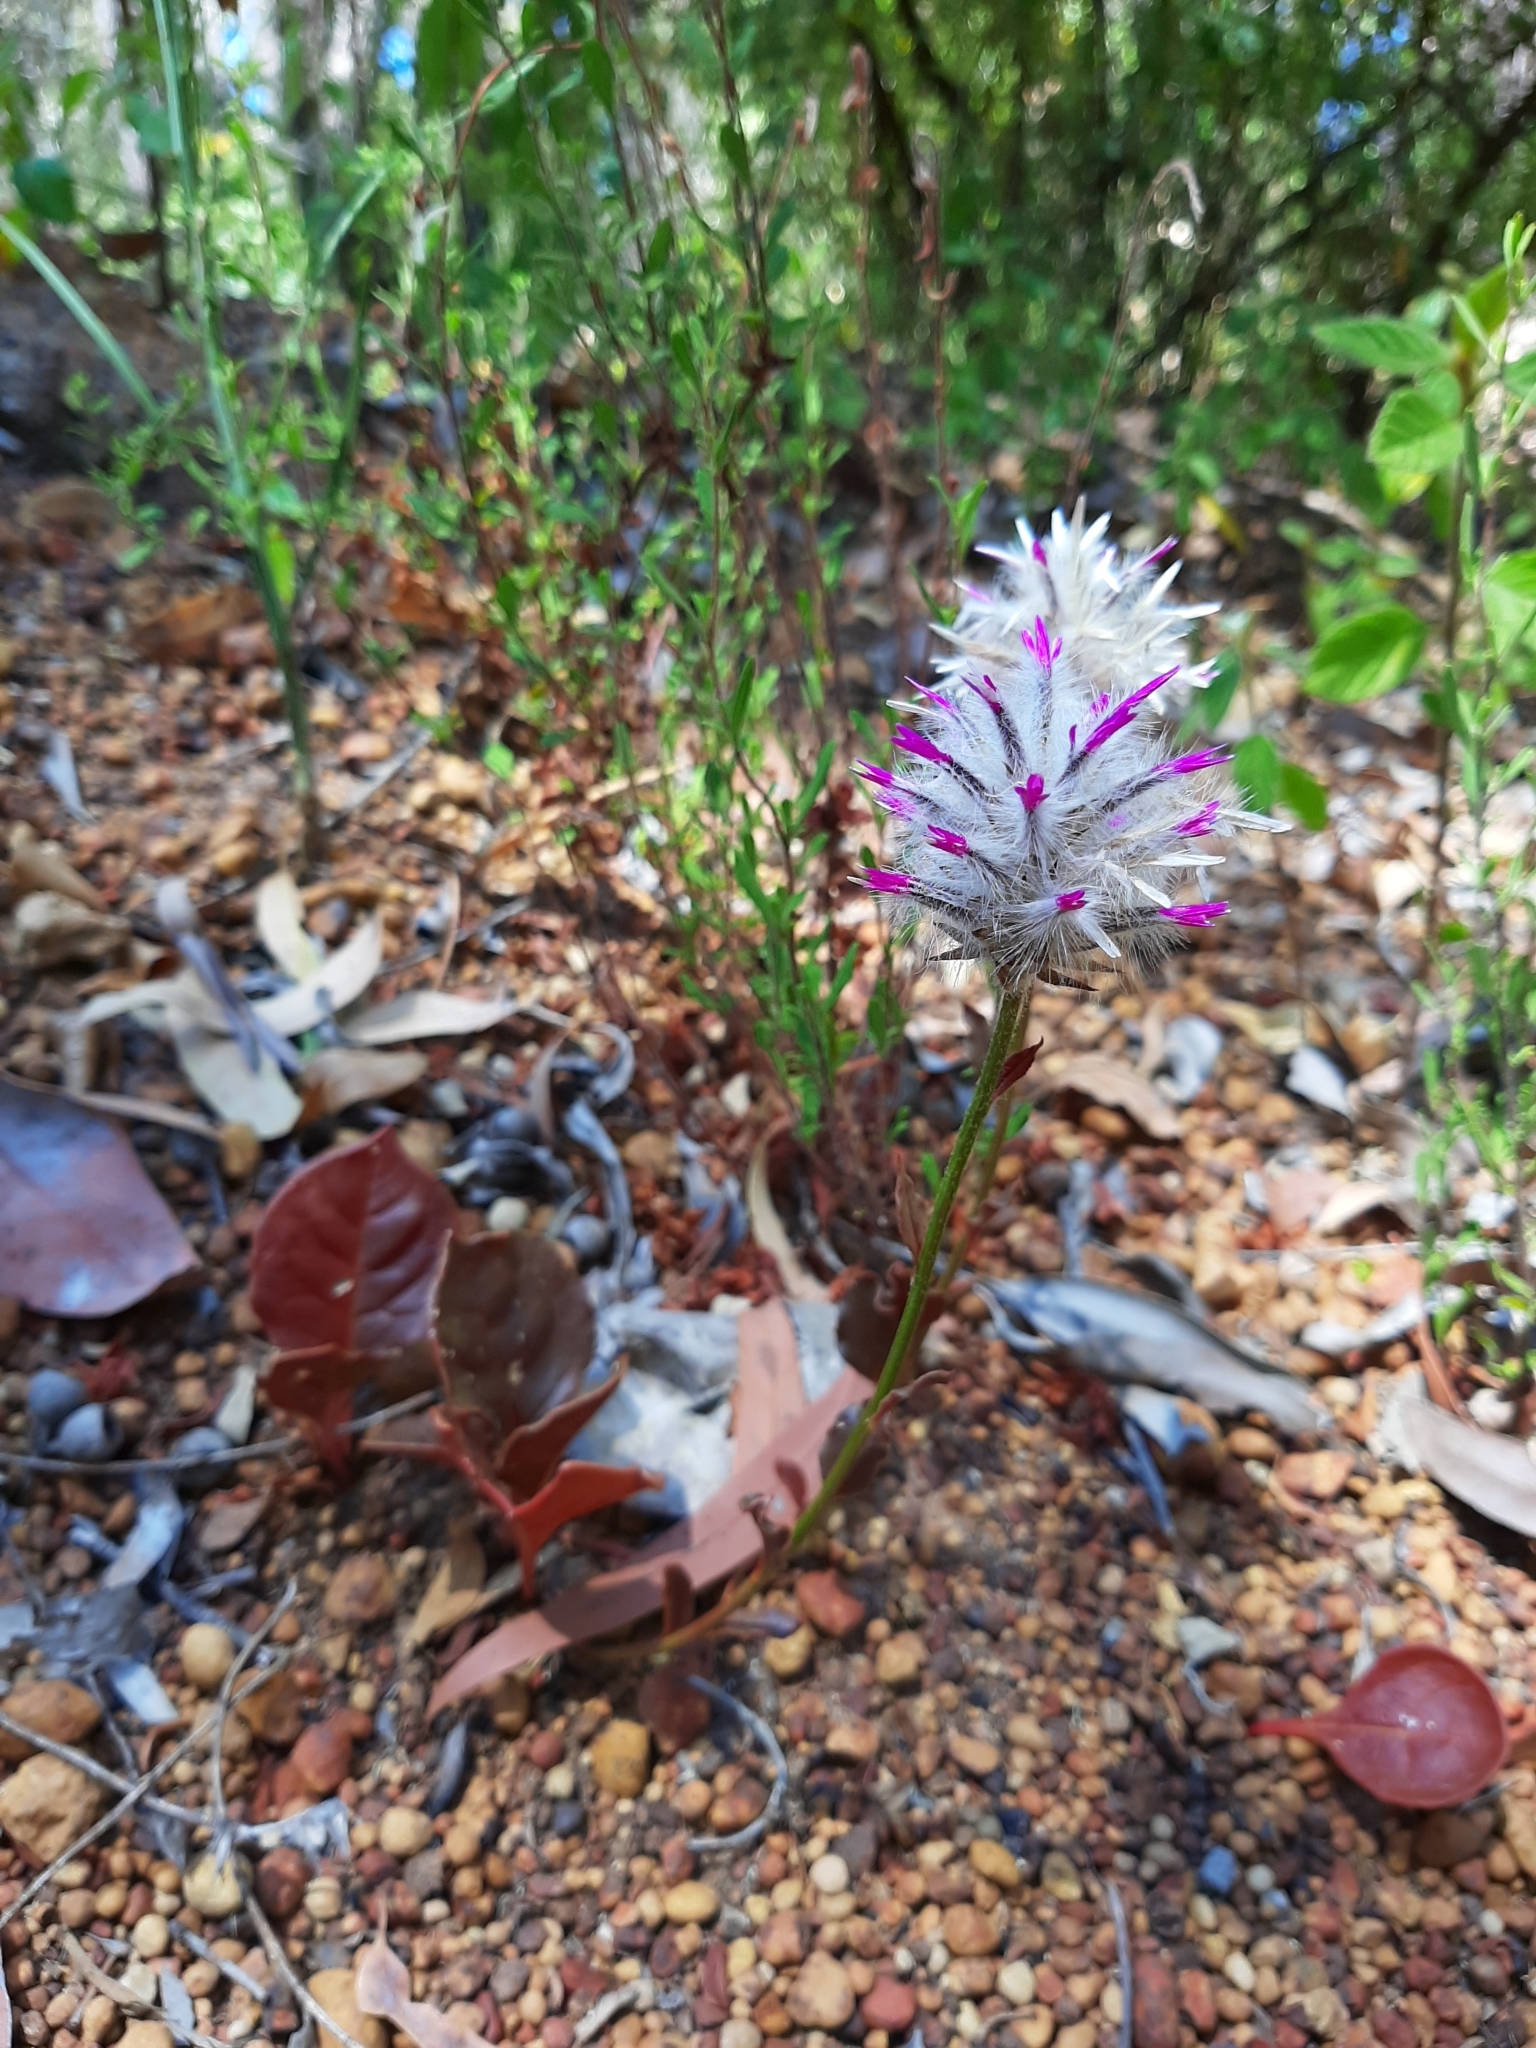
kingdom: Plantae
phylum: Tracheophyta
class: Magnoliopsida
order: Caryophyllales
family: Amaranthaceae
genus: Ptilotus
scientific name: Ptilotus manglesii
